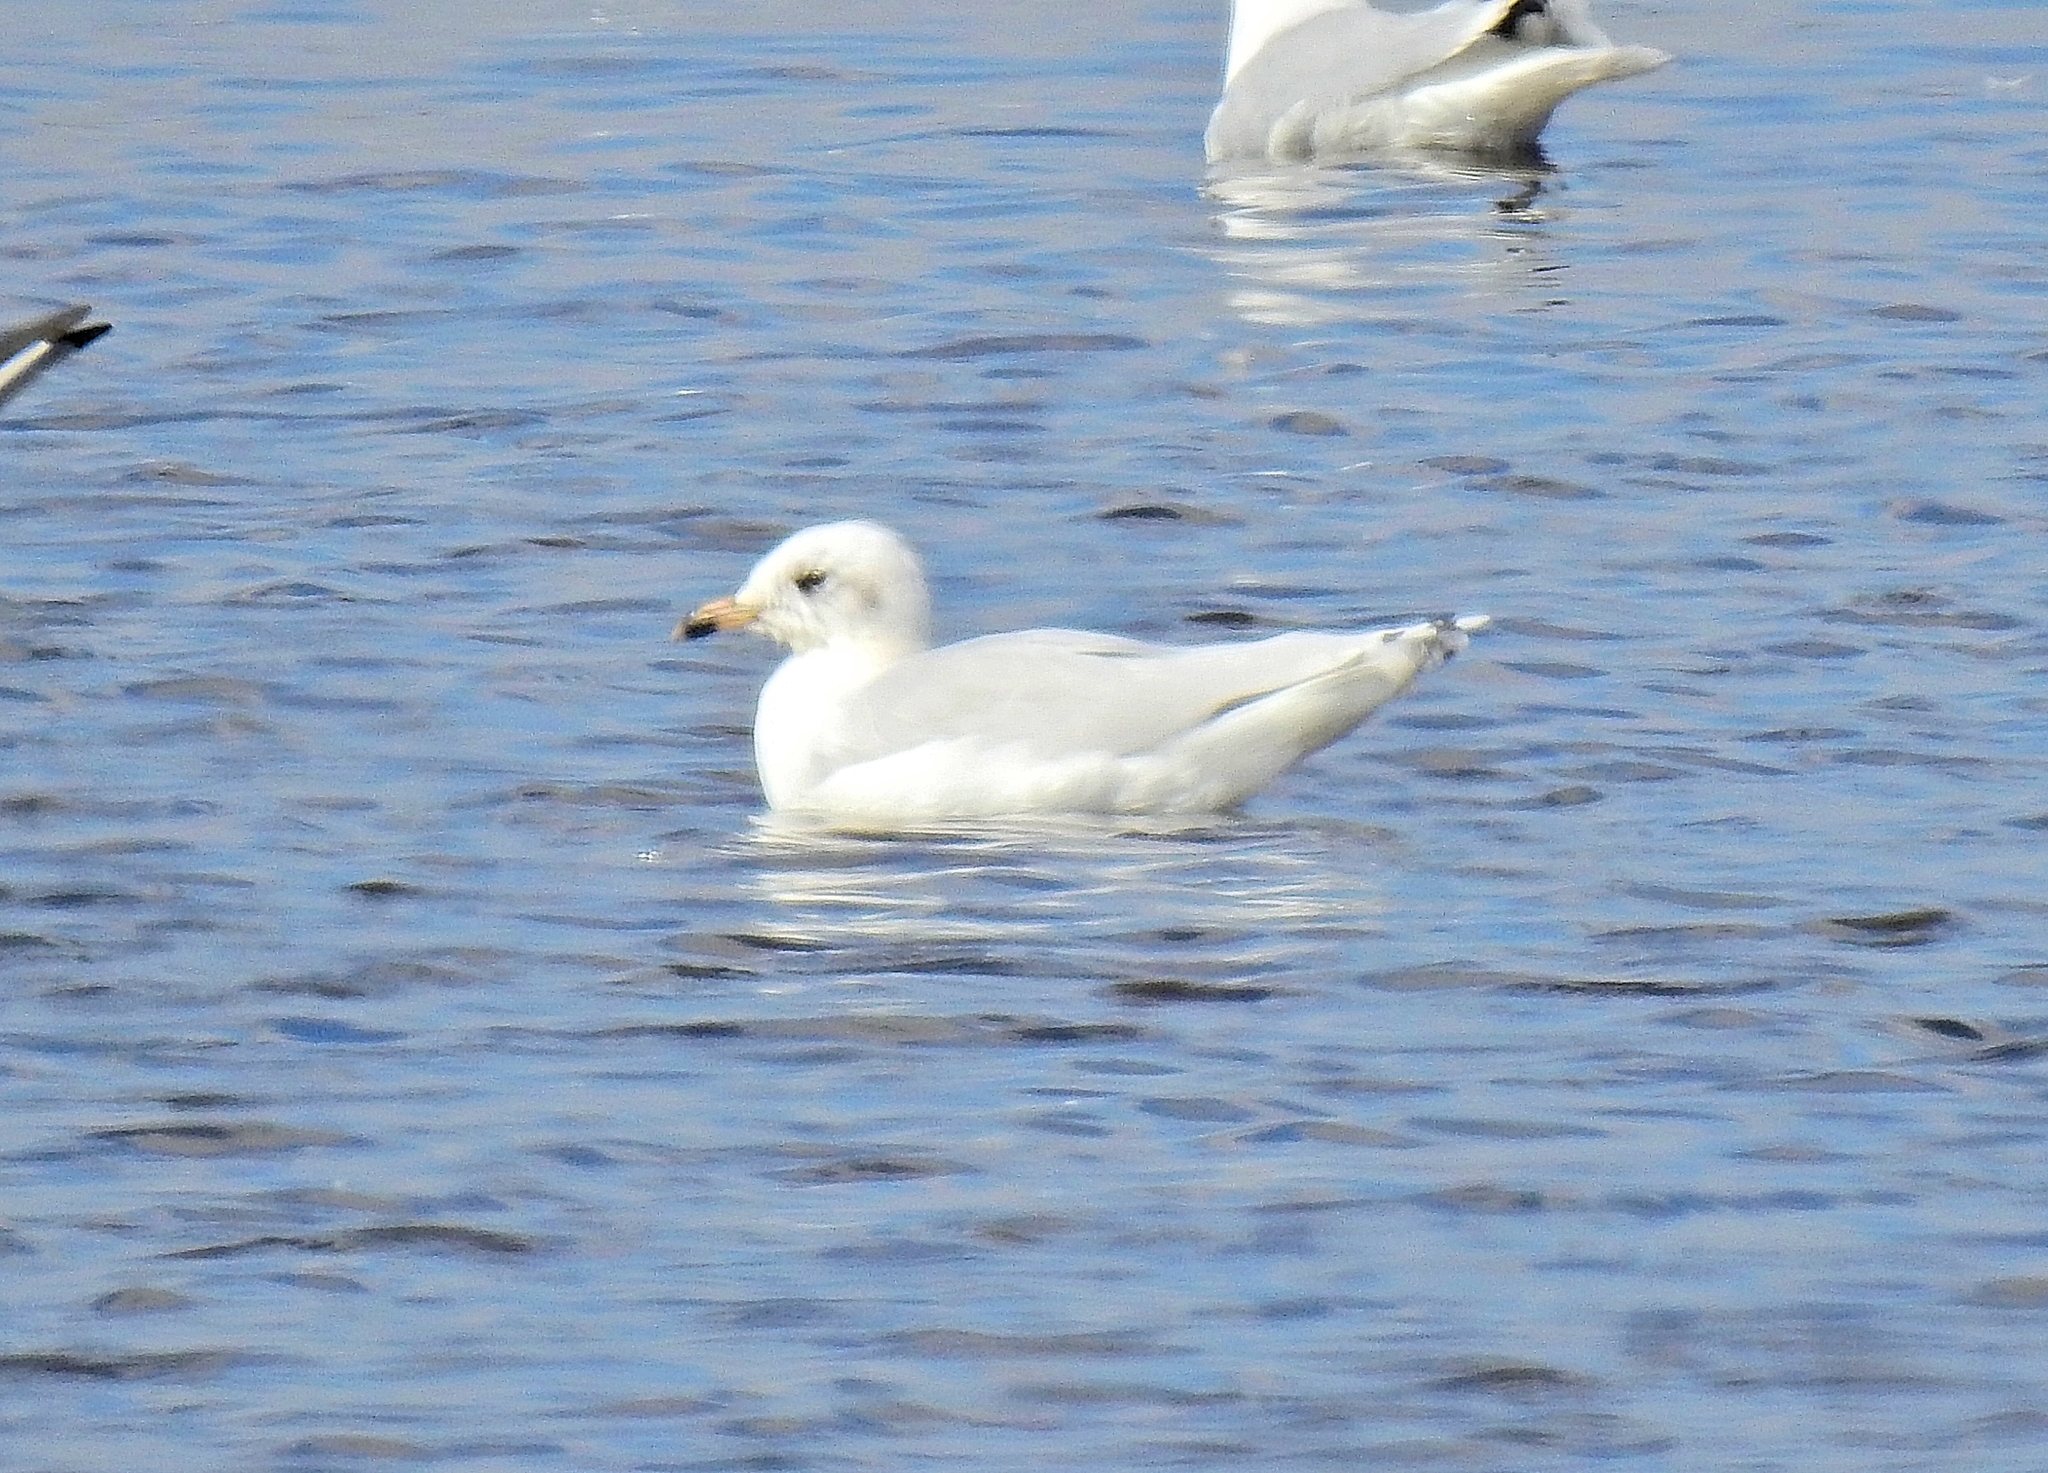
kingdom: Animalia
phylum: Chordata
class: Aves
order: Charadriiformes
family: Laridae
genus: Ichthyaetus
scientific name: Ichthyaetus melanocephalus
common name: Mediterranean gull
